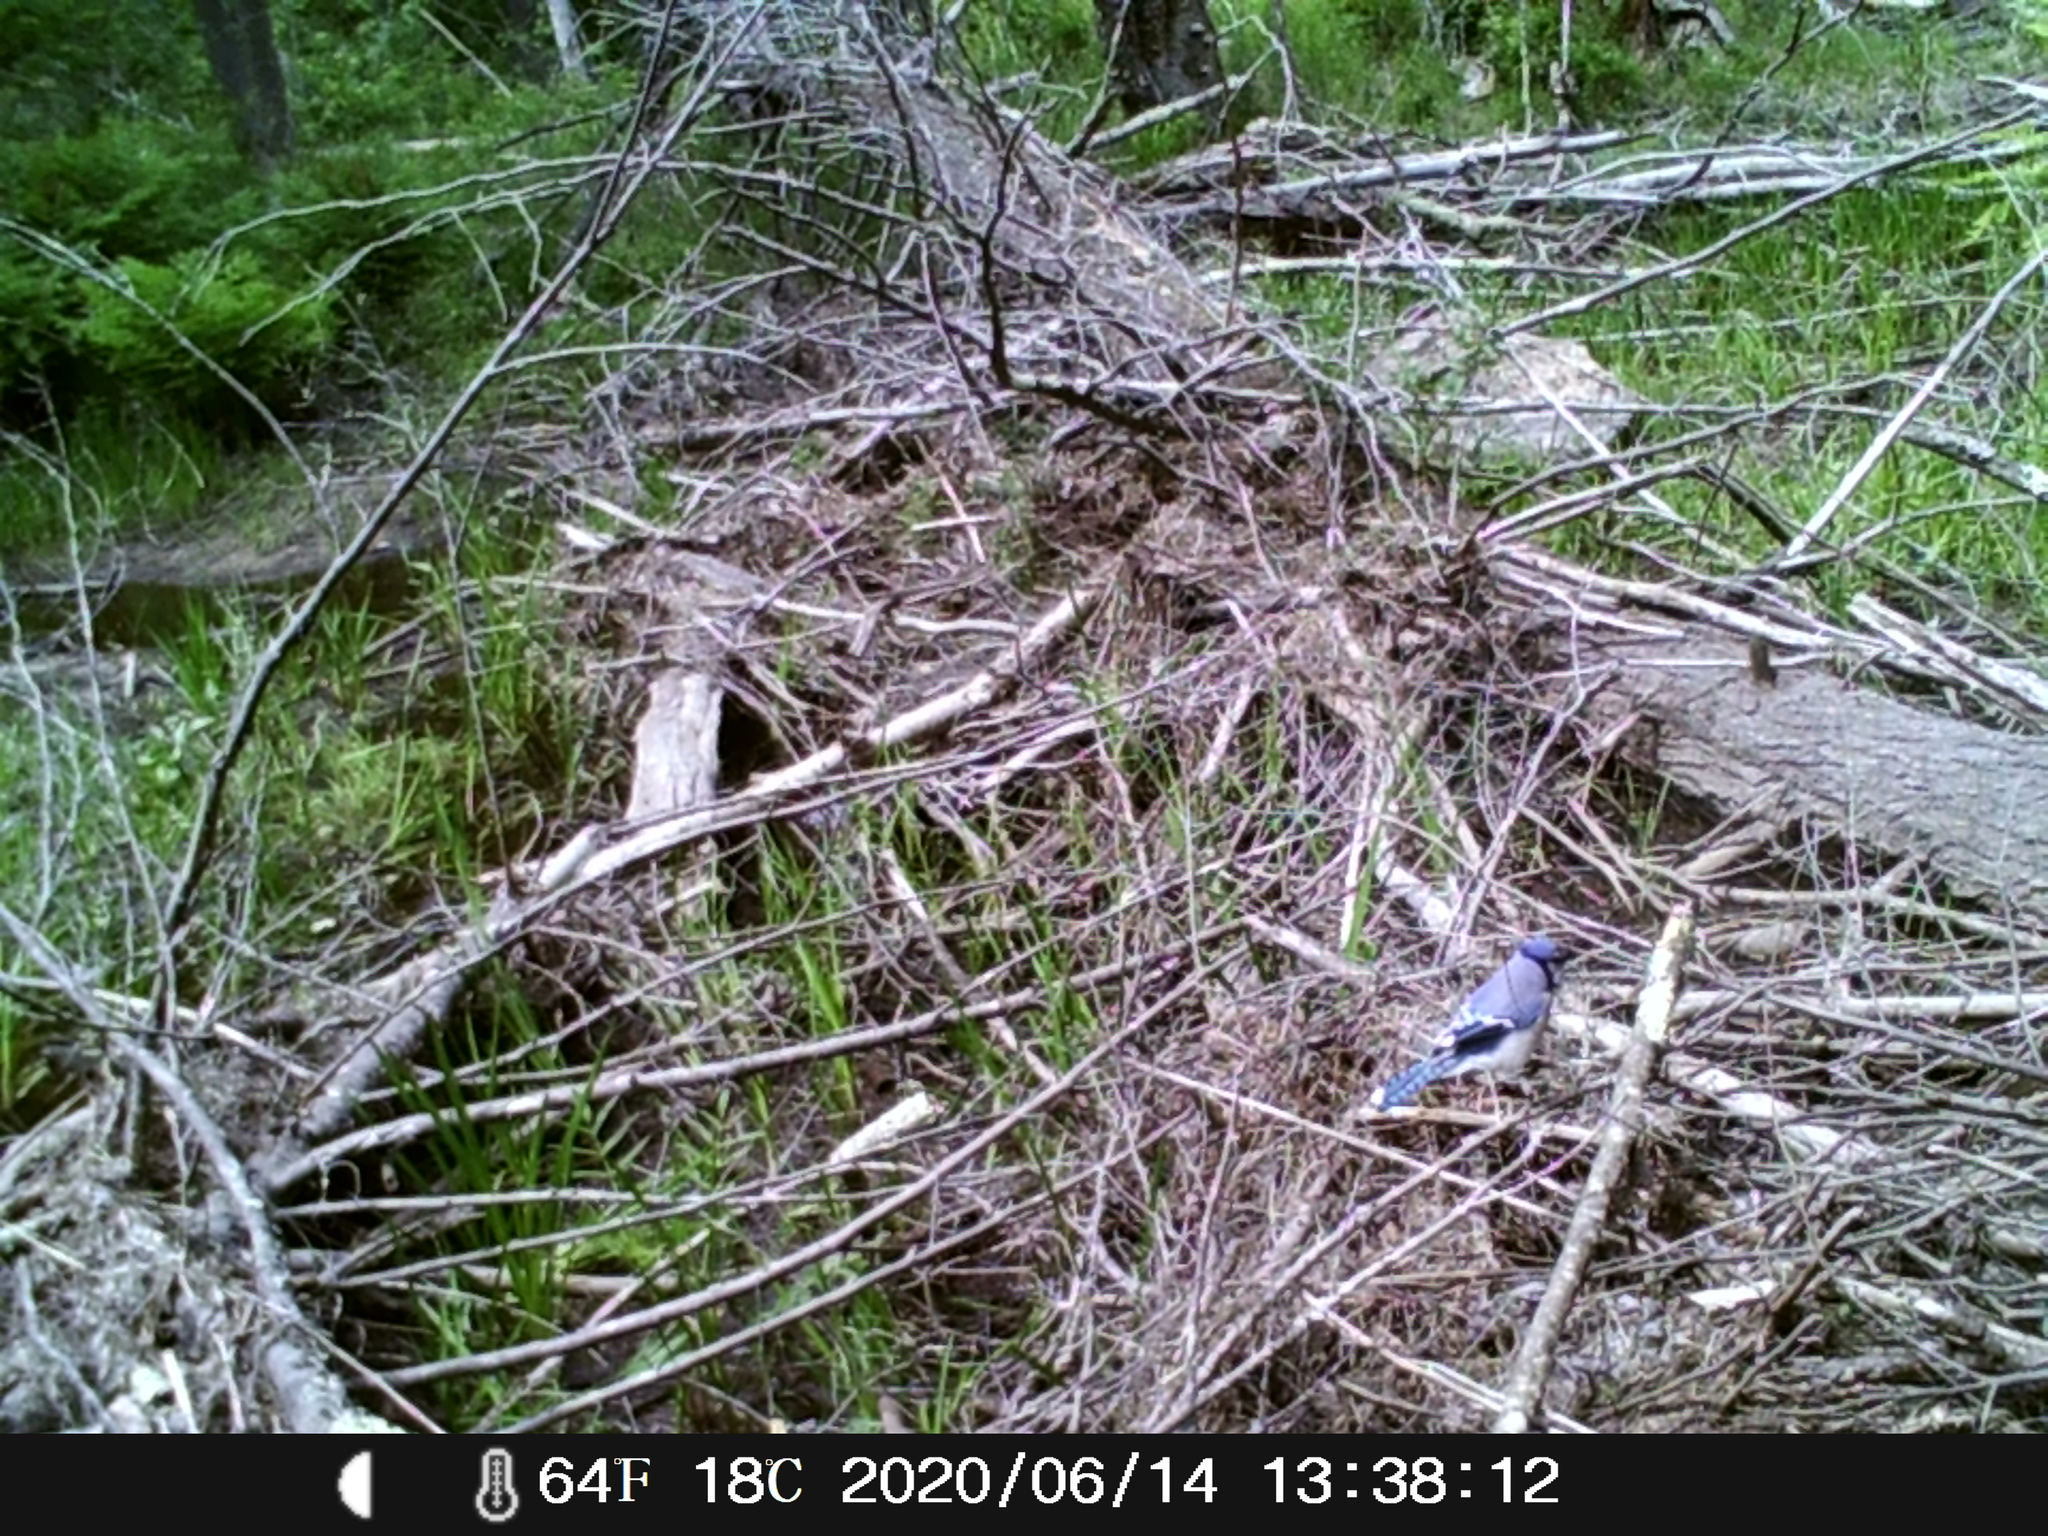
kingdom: Animalia
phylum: Chordata
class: Aves
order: Passeriformes
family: Corvidae
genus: Cyanocitta
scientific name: Cyanocitta cristata
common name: Blue jay
